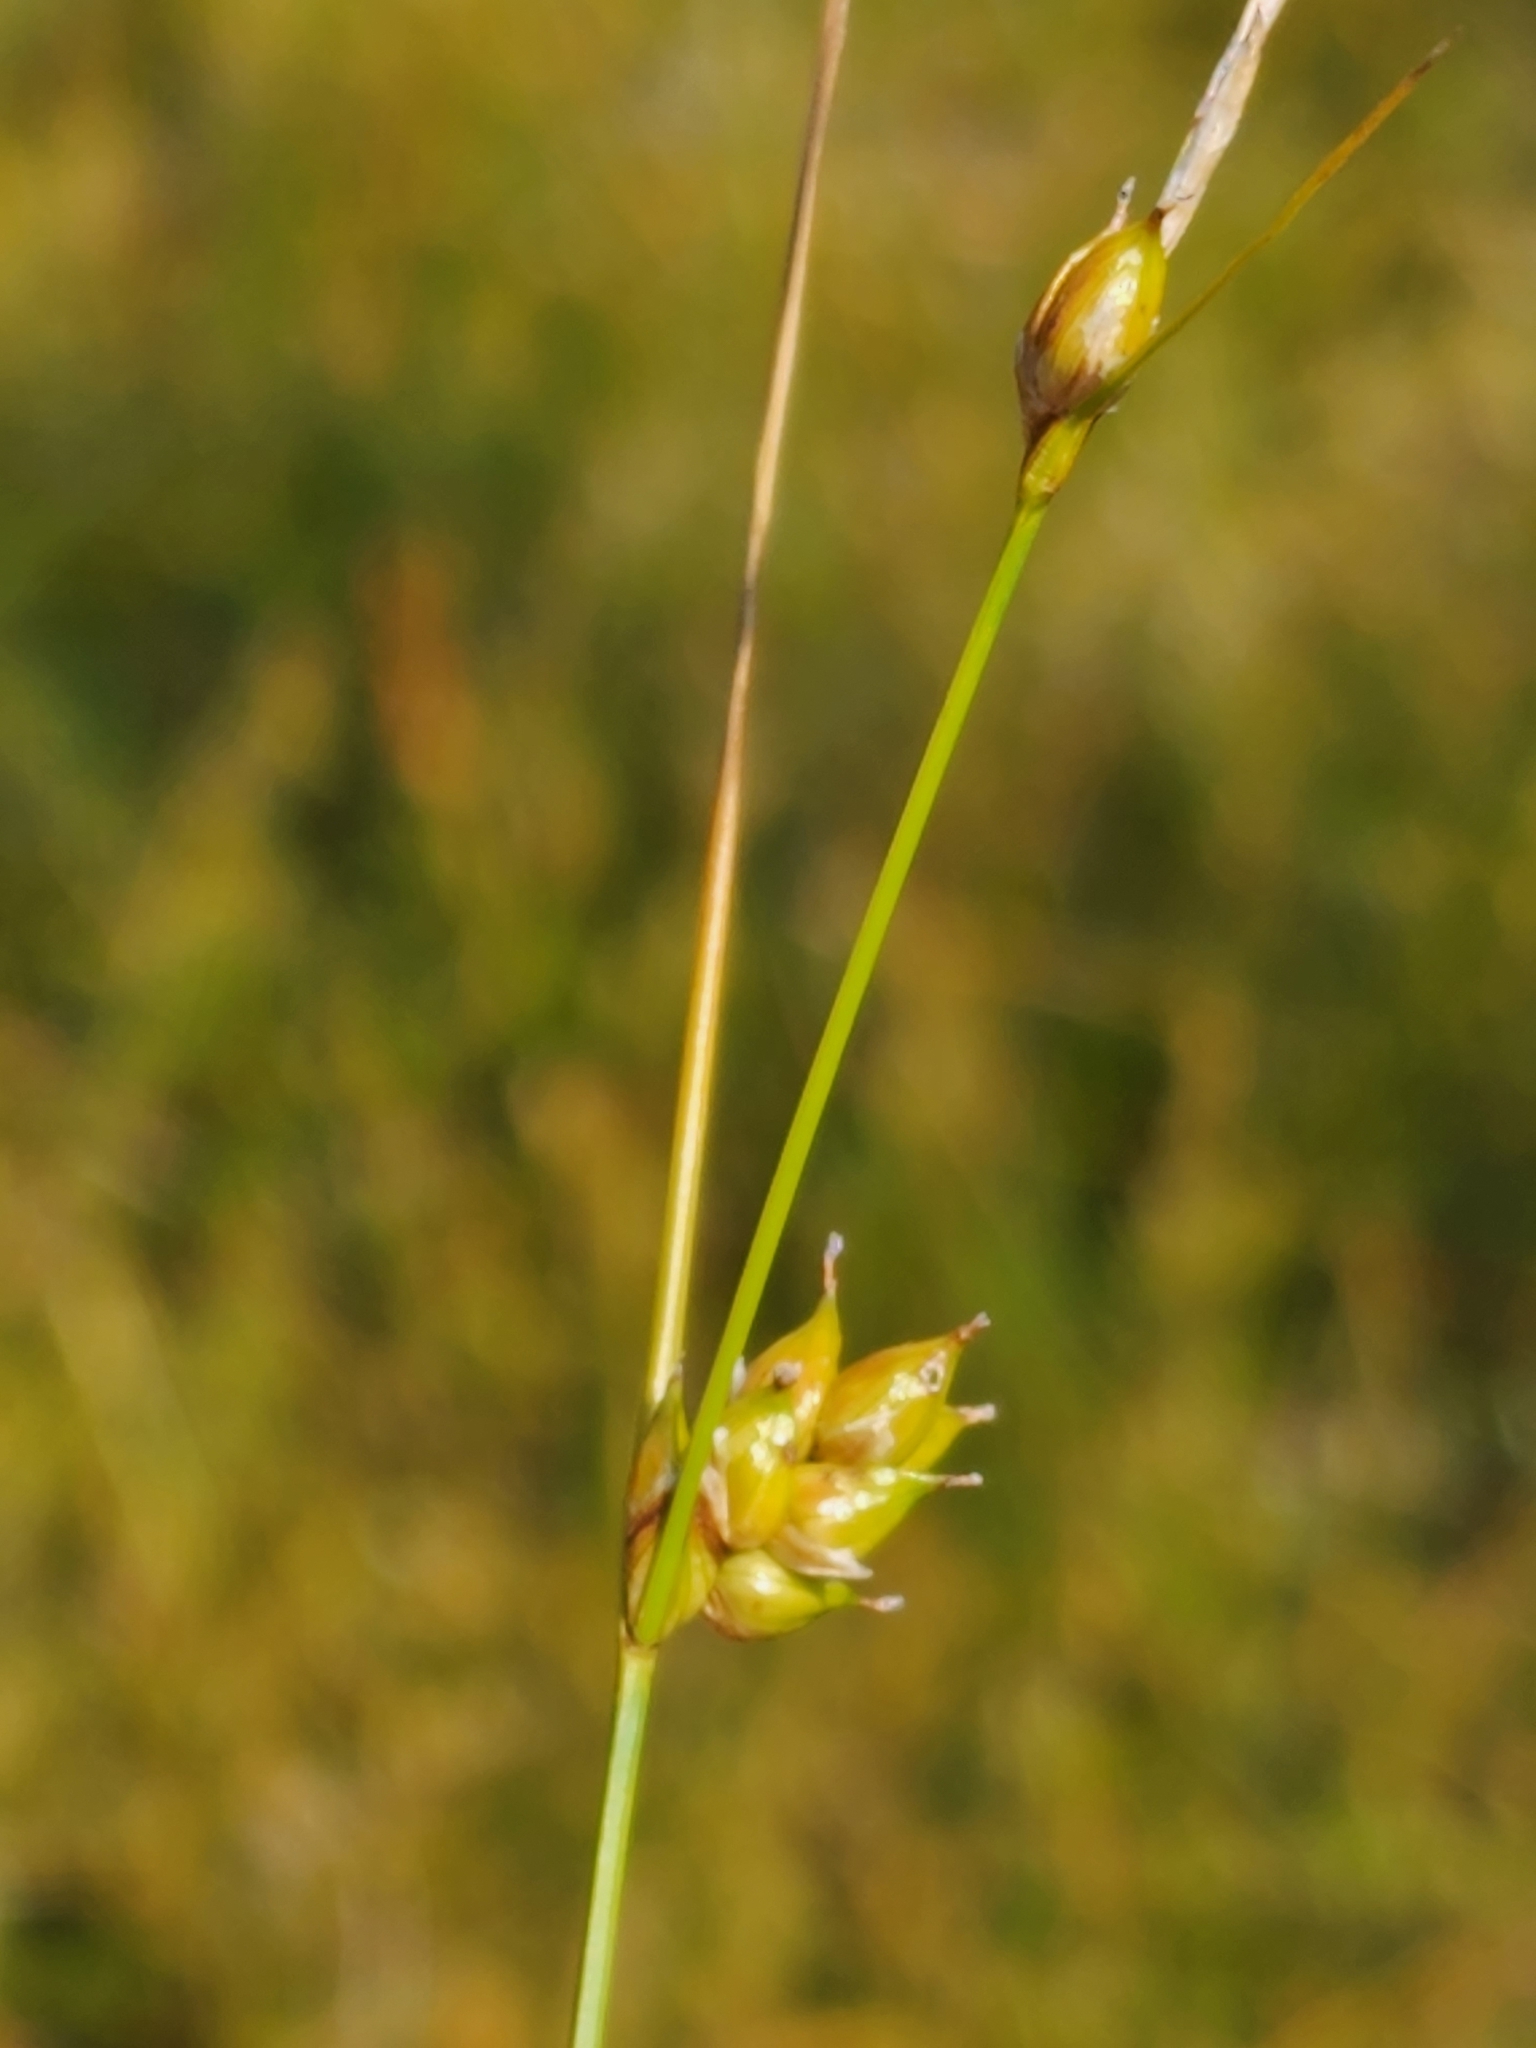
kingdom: Plantae
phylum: Tracheophyta
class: Liliopsida
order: Poales
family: Cyperaceae
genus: Carex
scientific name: Carex oligosperma
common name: Few-seed sedge
